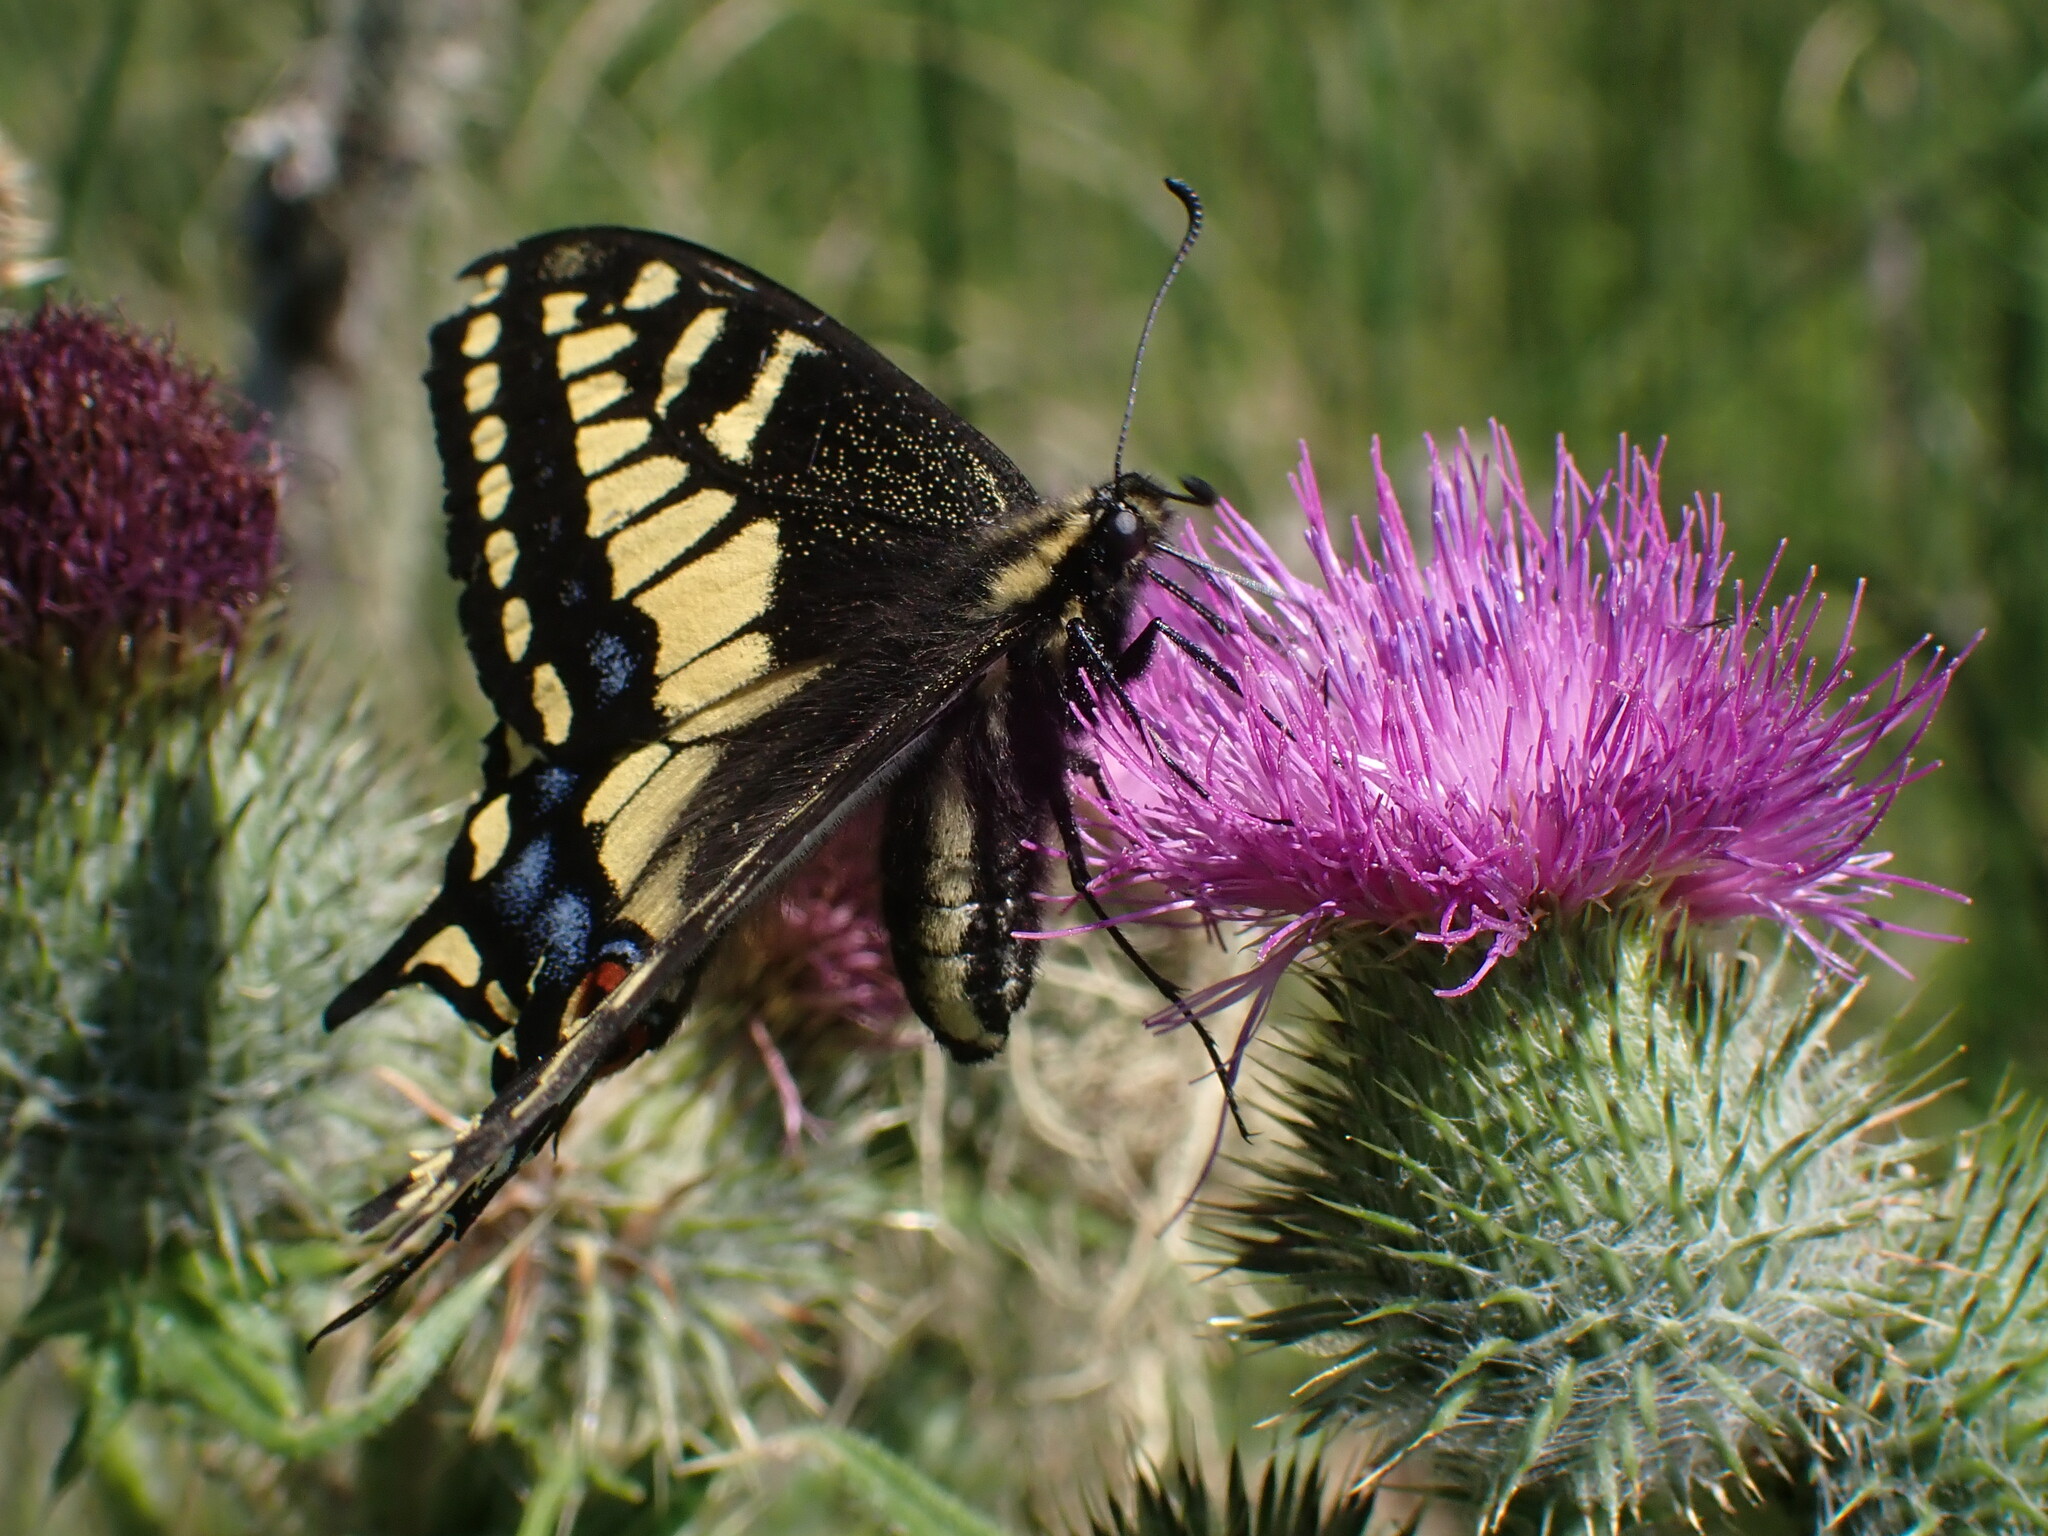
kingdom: Animalia
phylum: Arthropoda
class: Insecta
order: Lepidoptera
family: Papilionidae
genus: Papilio
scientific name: Papilio zelicaon
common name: Anise swallowtail
